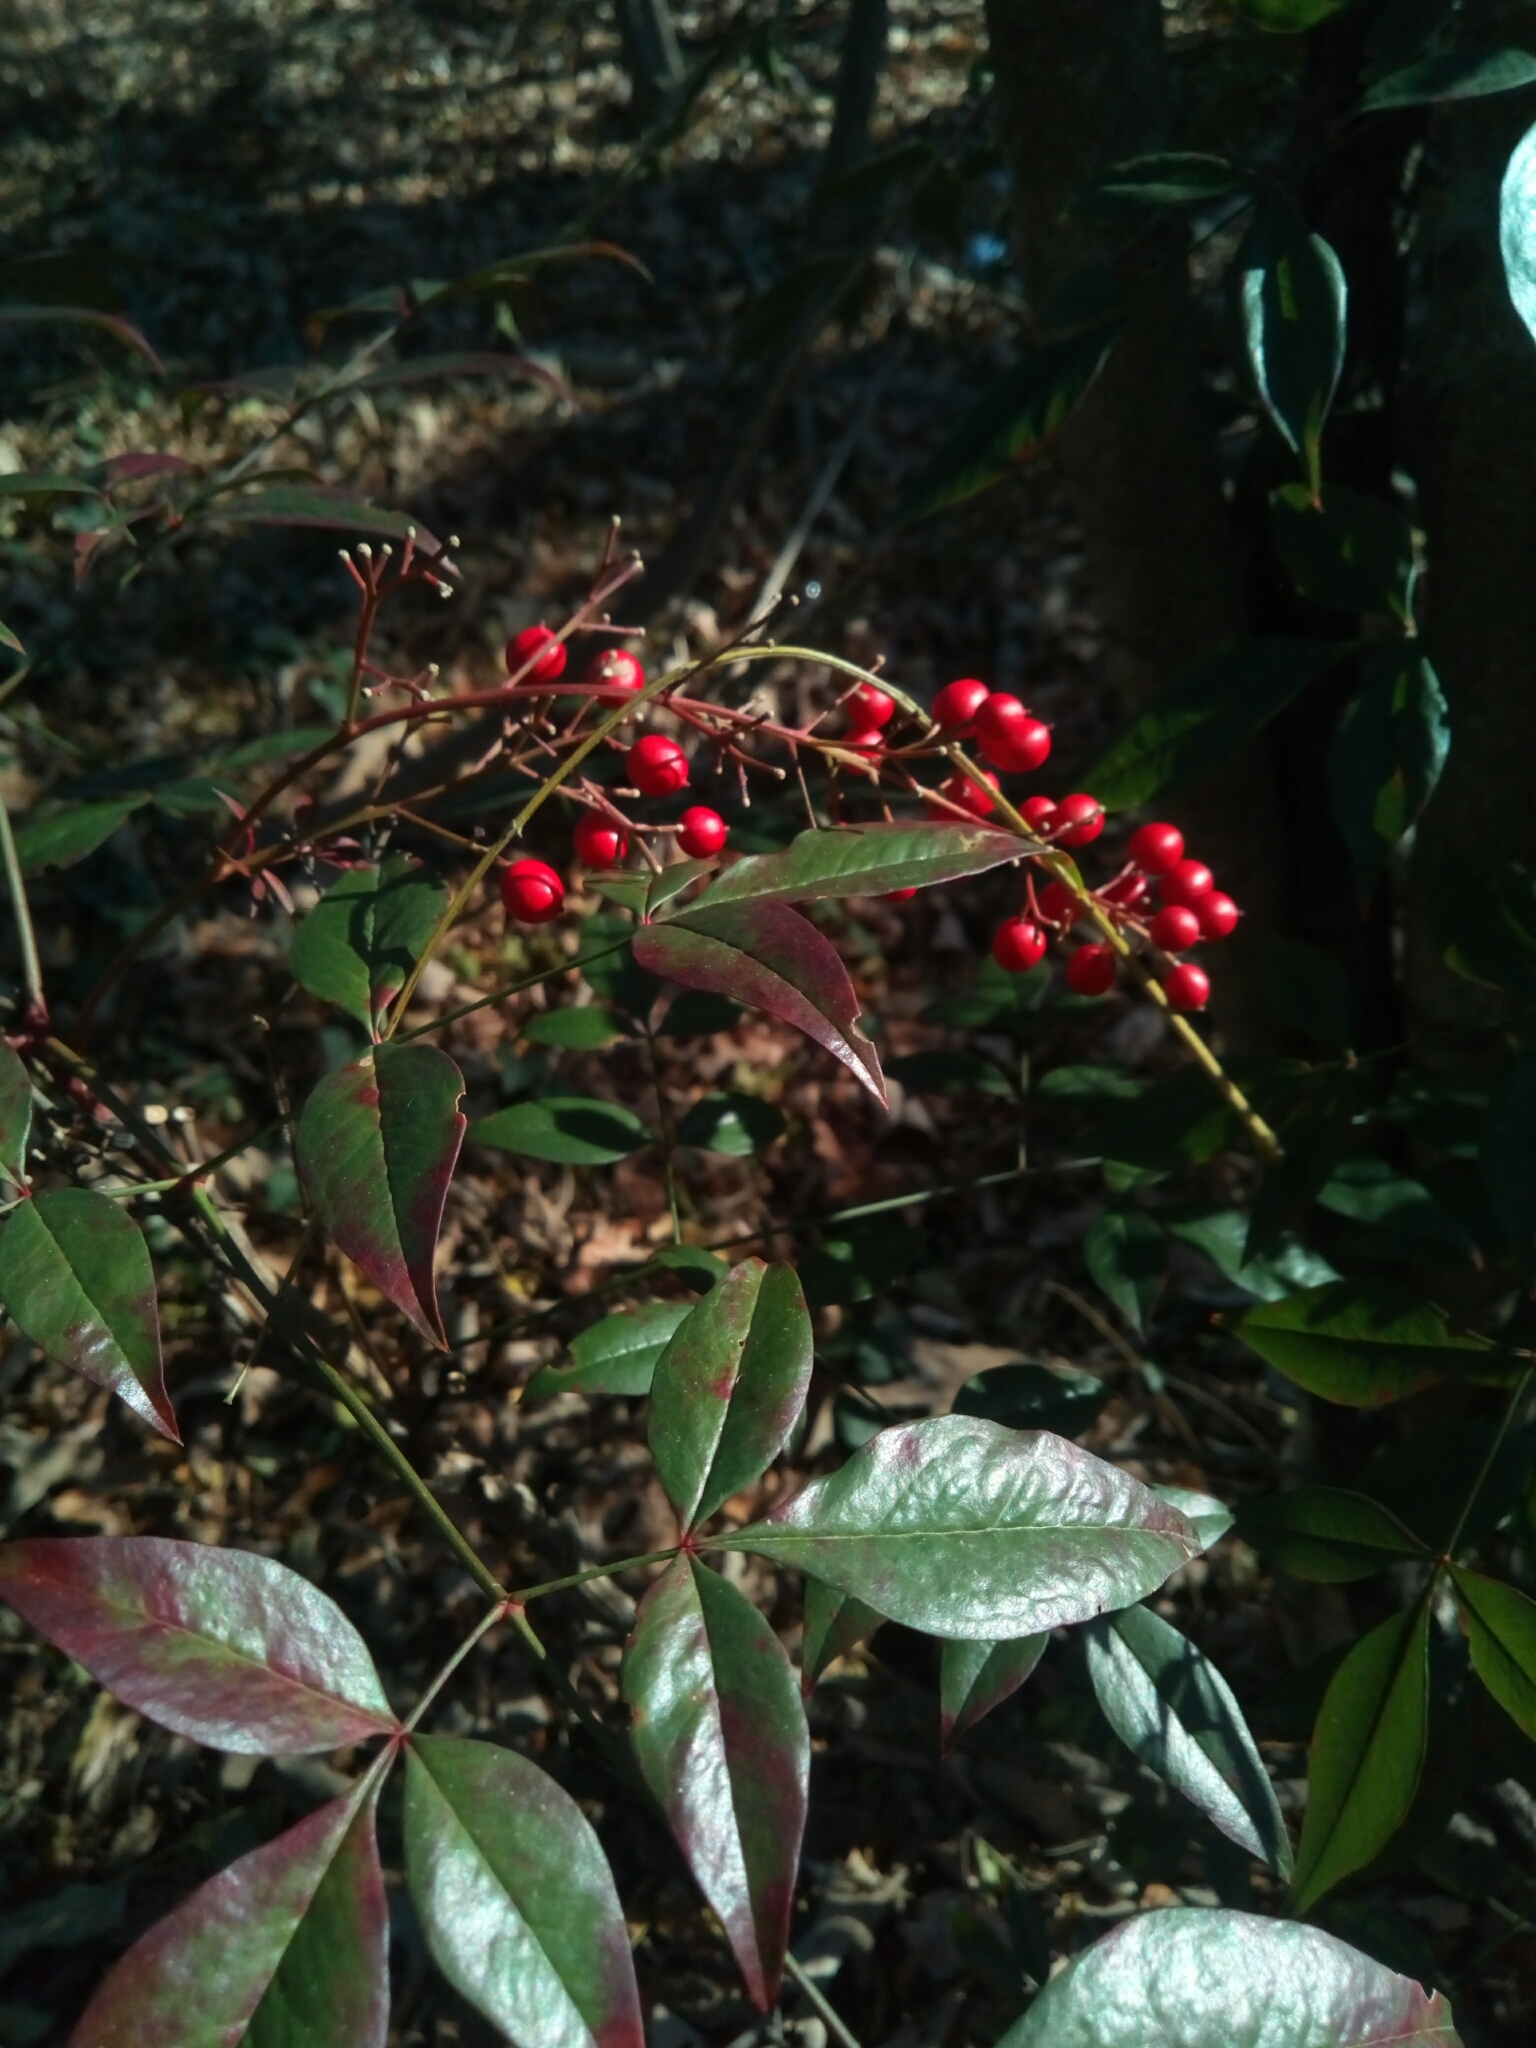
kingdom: Plantae
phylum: Tracheophyta
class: Magnoliopsida
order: Ranunculales
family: Berberidaceae
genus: Nandina
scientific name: Nandina domestica
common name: Sacred bamboo
